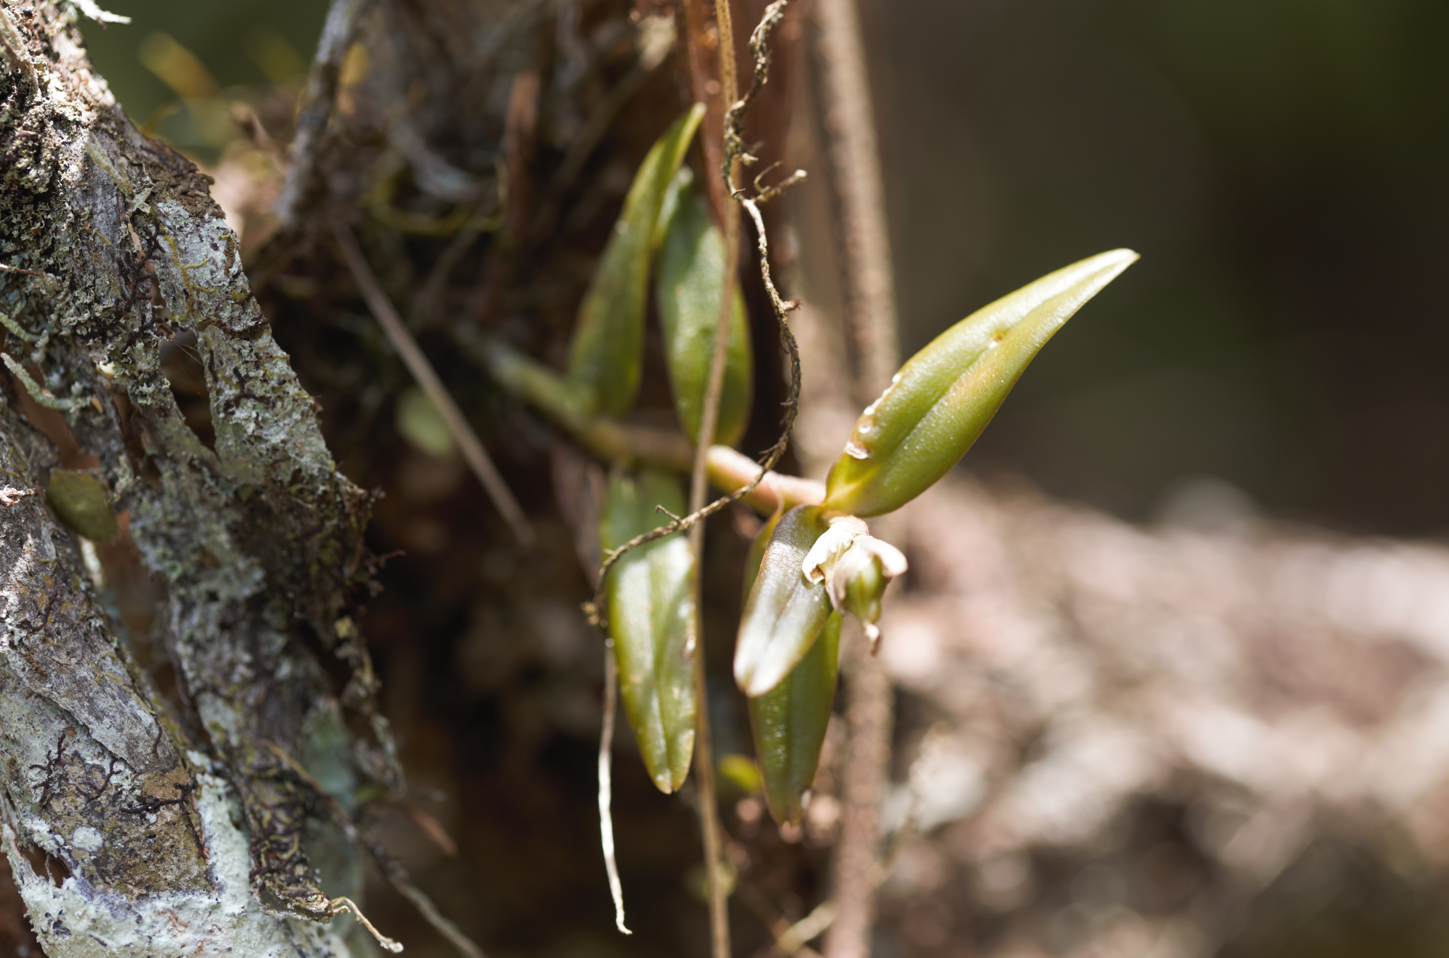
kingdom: Plantae
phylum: Tracheophyta
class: Liliopsida
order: Asparagales
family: Orchidaceae
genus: Epidendrum
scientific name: Epidendrum strobiliferum
